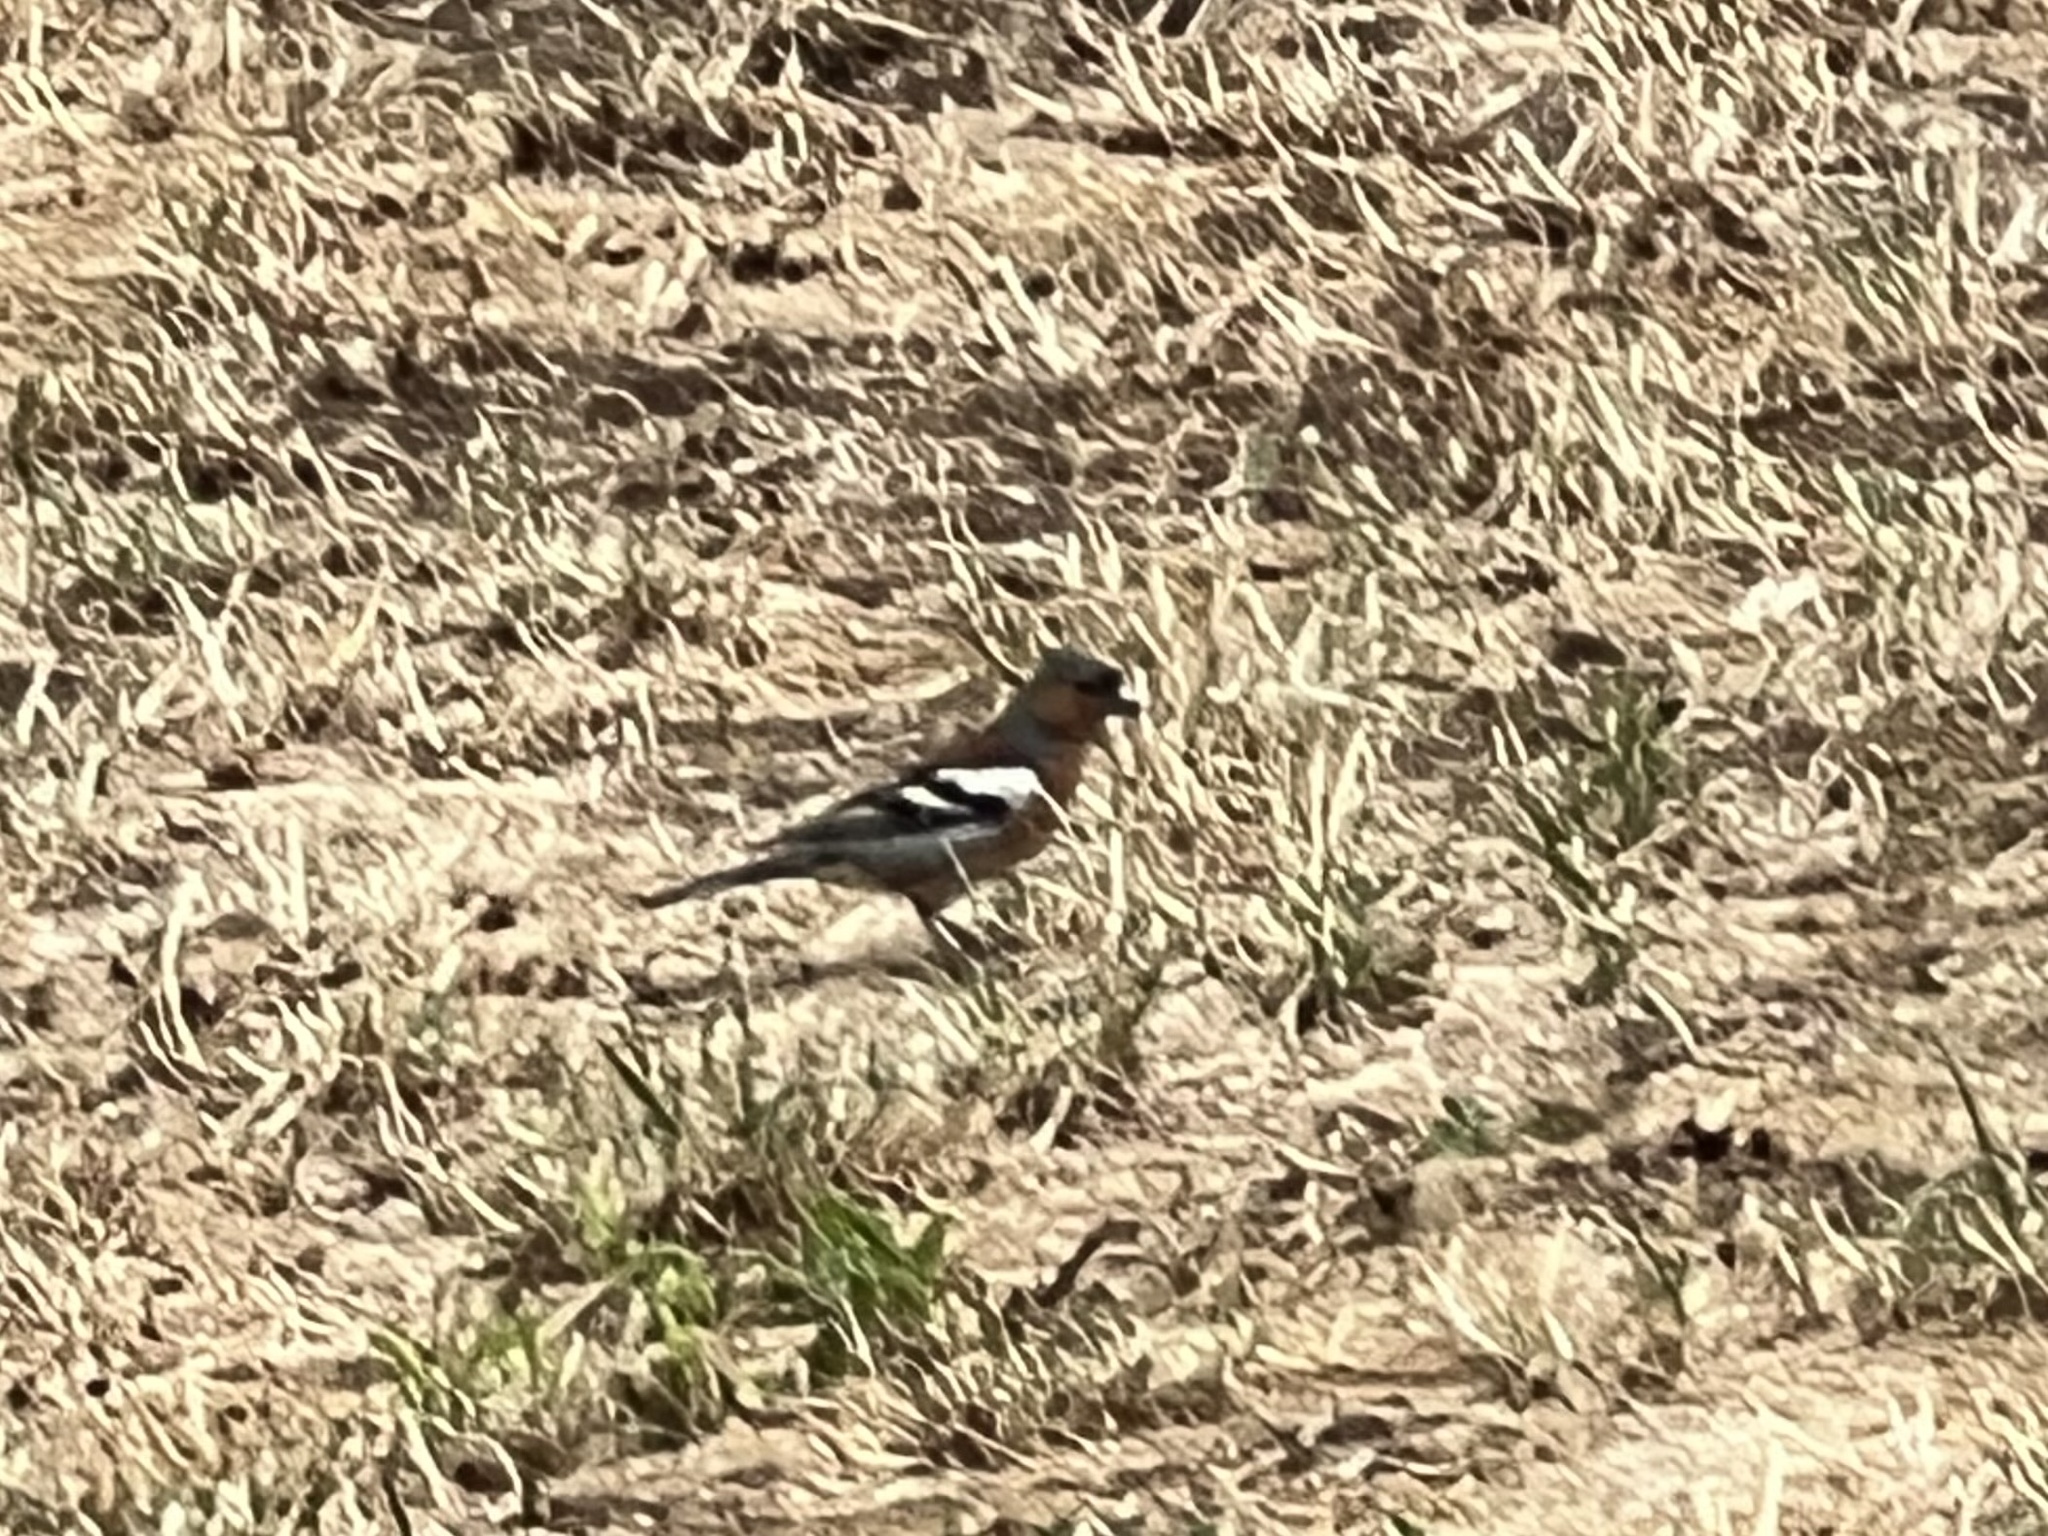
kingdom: Animalia
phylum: Chordata
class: Aves
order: Passeriformes
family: Fringillidae
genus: Fringilla
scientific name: Fringilla coelebs
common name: Common chaffinch
